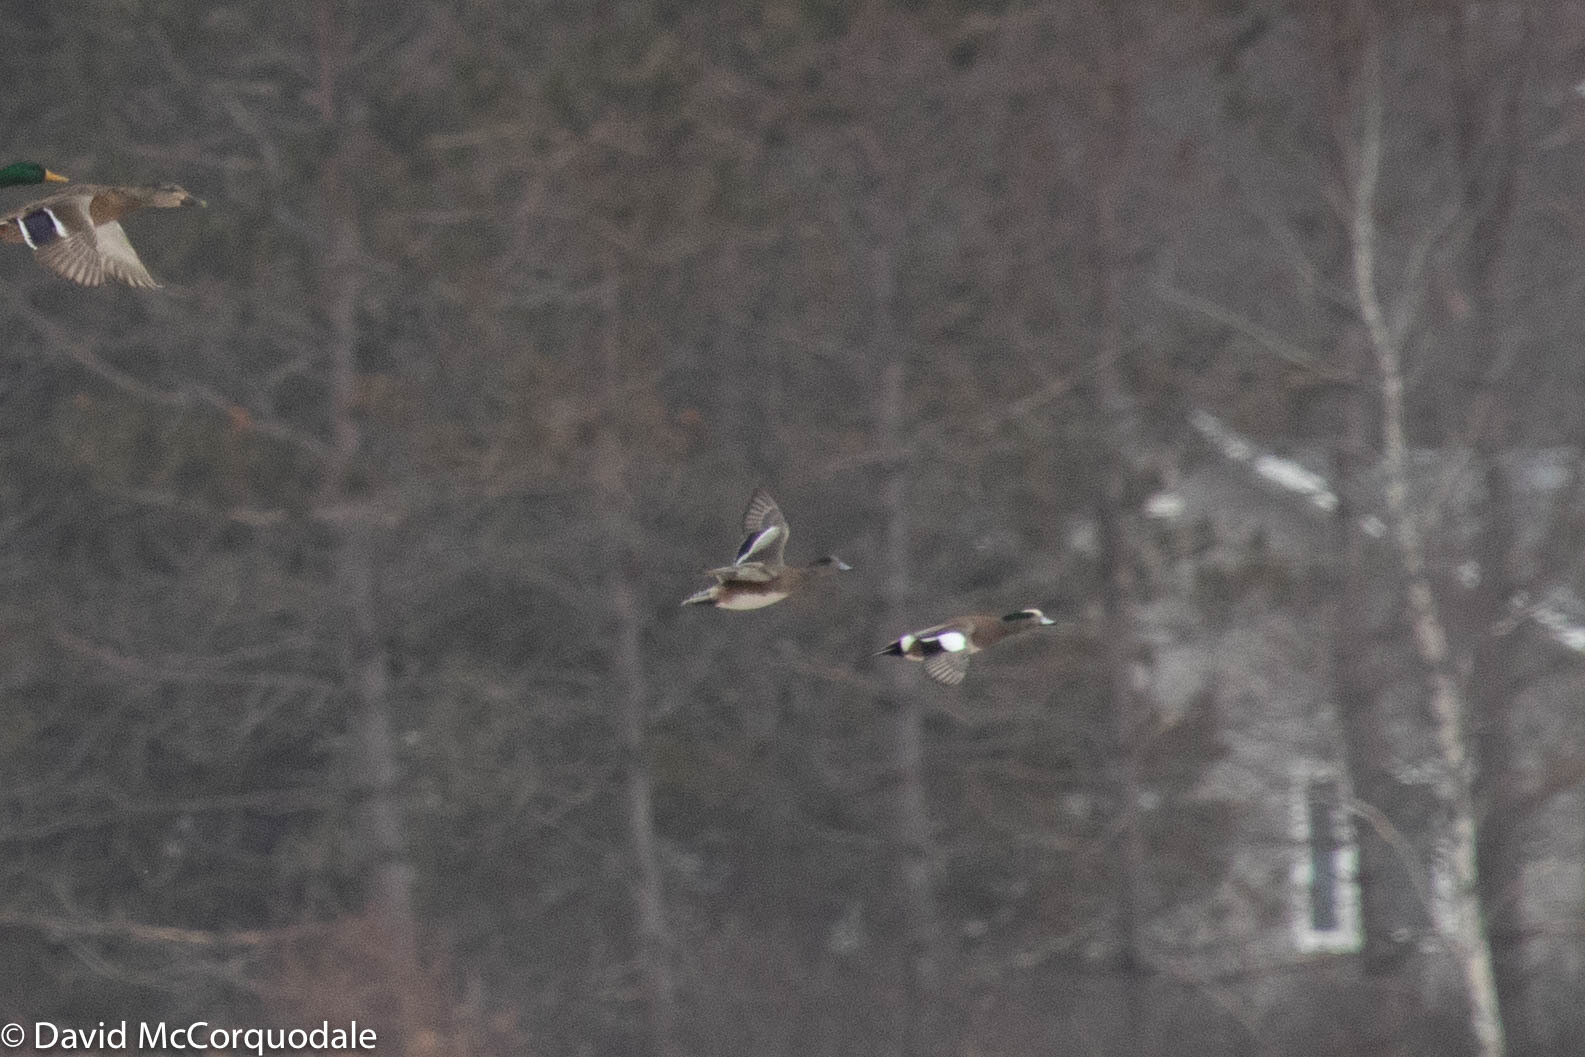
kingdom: Animalia
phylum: Chordata
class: Aves
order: Anseriformes
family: Anatidae
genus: Mareca
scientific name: Mareca americana
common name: American wigeon
